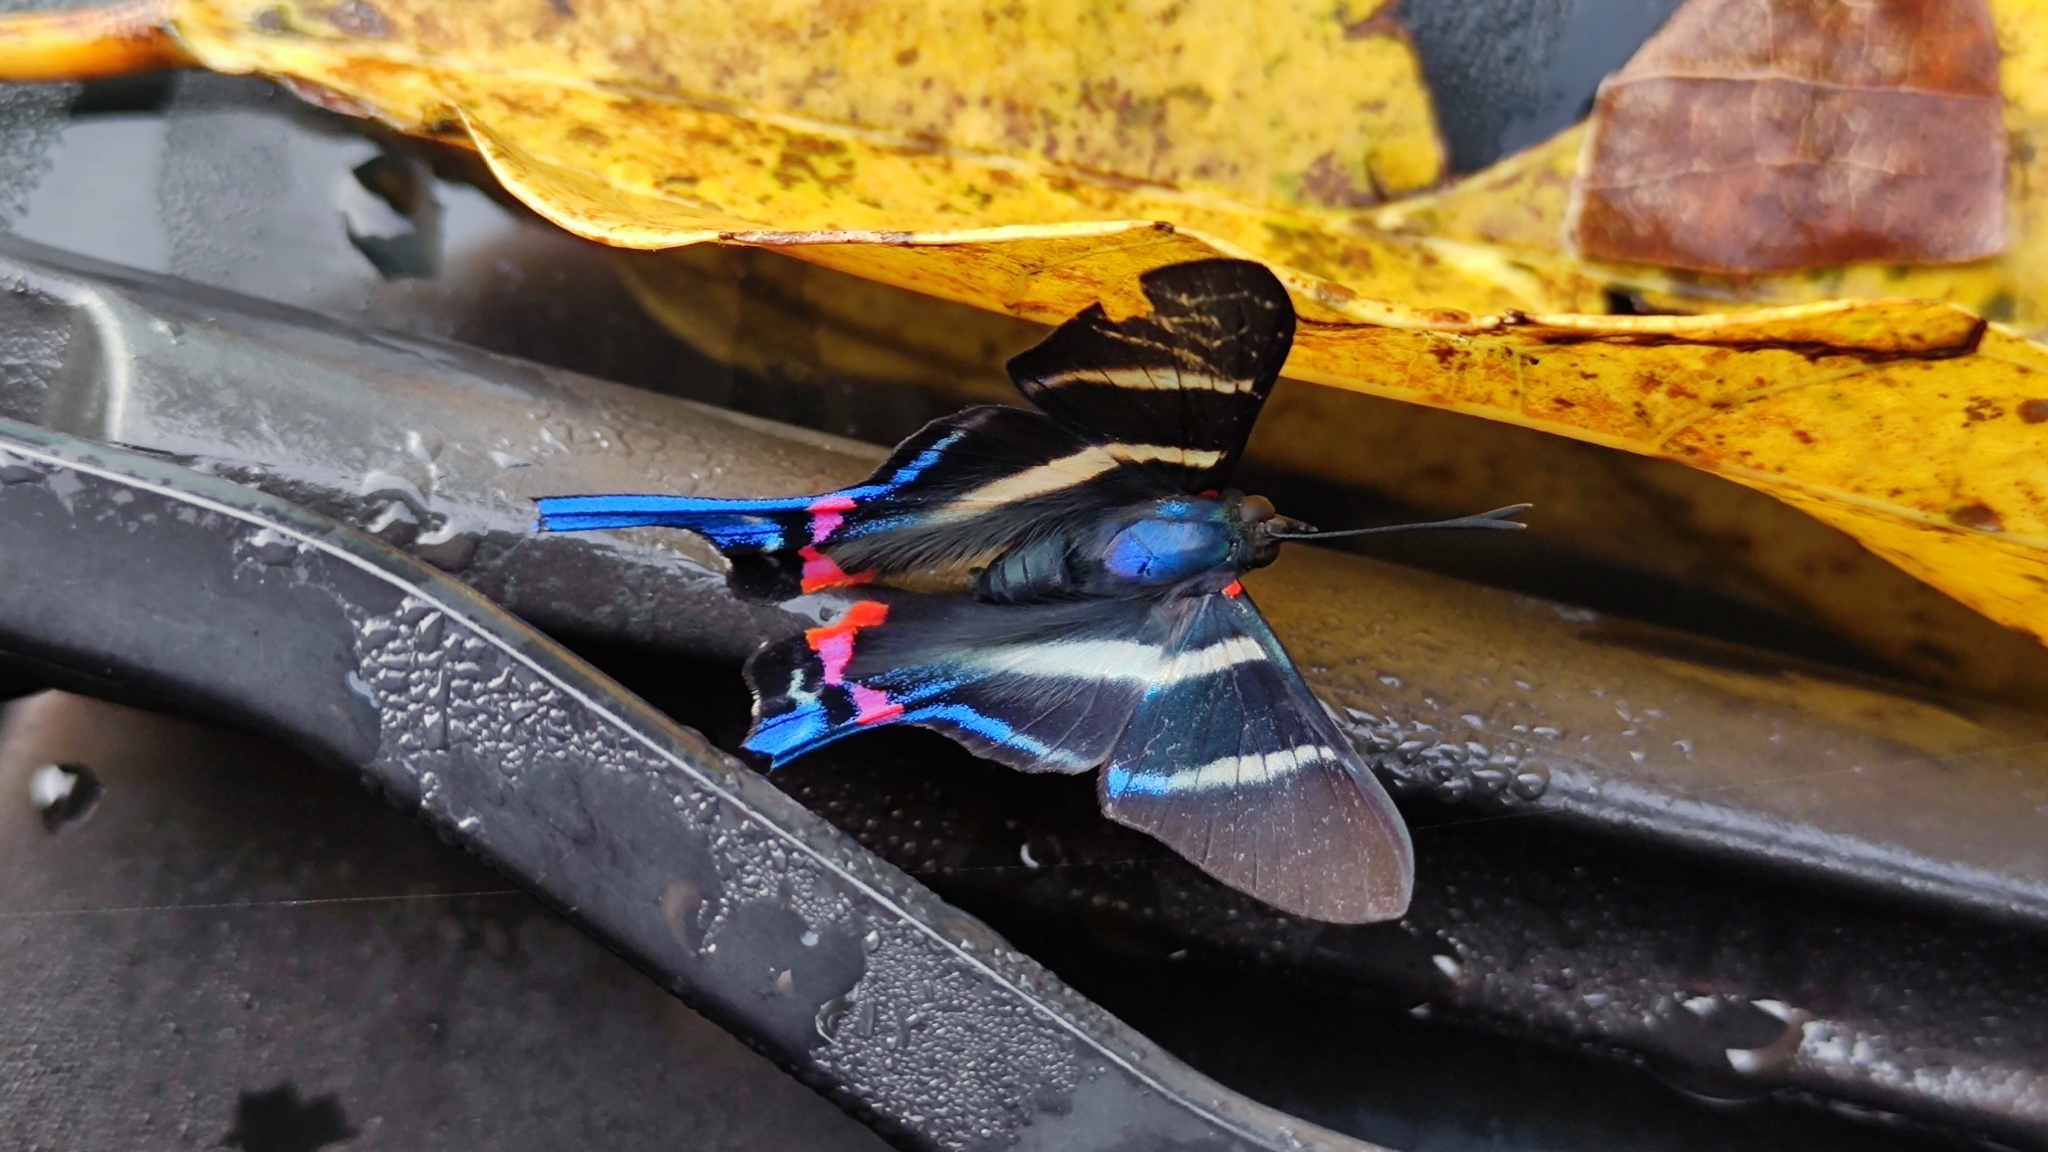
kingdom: Animalia
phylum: Arthropoda
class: Insecta
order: Lepidoptera
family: Riodinidae
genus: Rhetus
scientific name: Rhetus arcius
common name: Long-tailed metalmark
